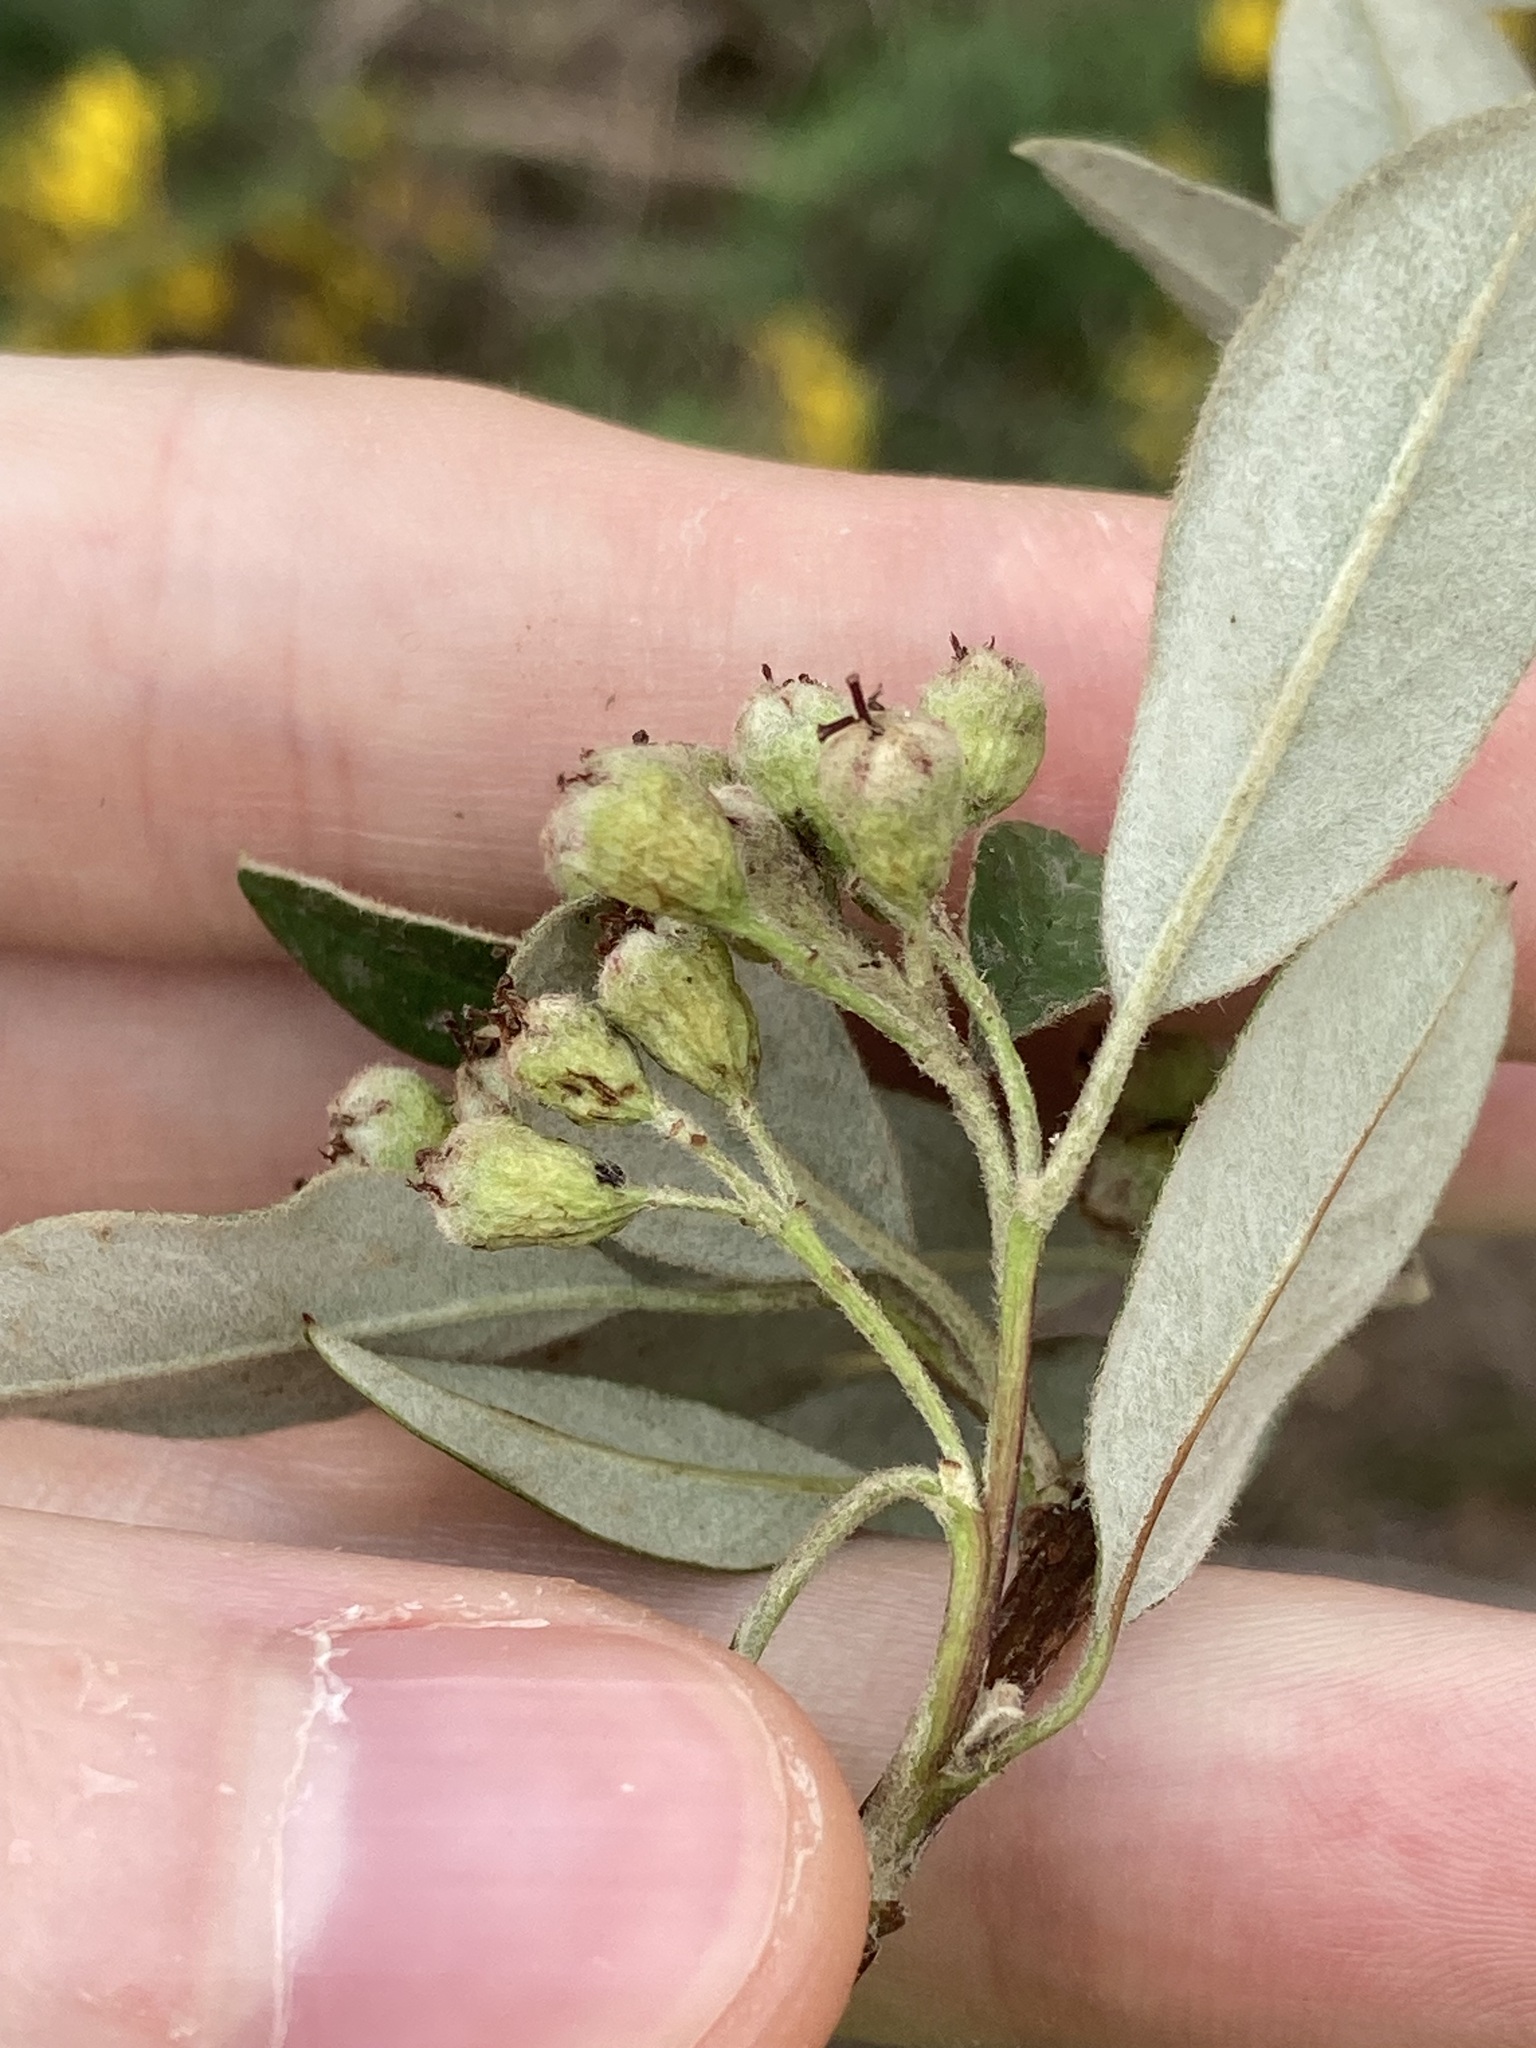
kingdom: Plantae
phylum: Tracheophyta
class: Magnoliopsida
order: Rosales
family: Rosaceae
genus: Cotoneaster
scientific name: Cotoneaster pannosus
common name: Silverleaf cotoneaster
